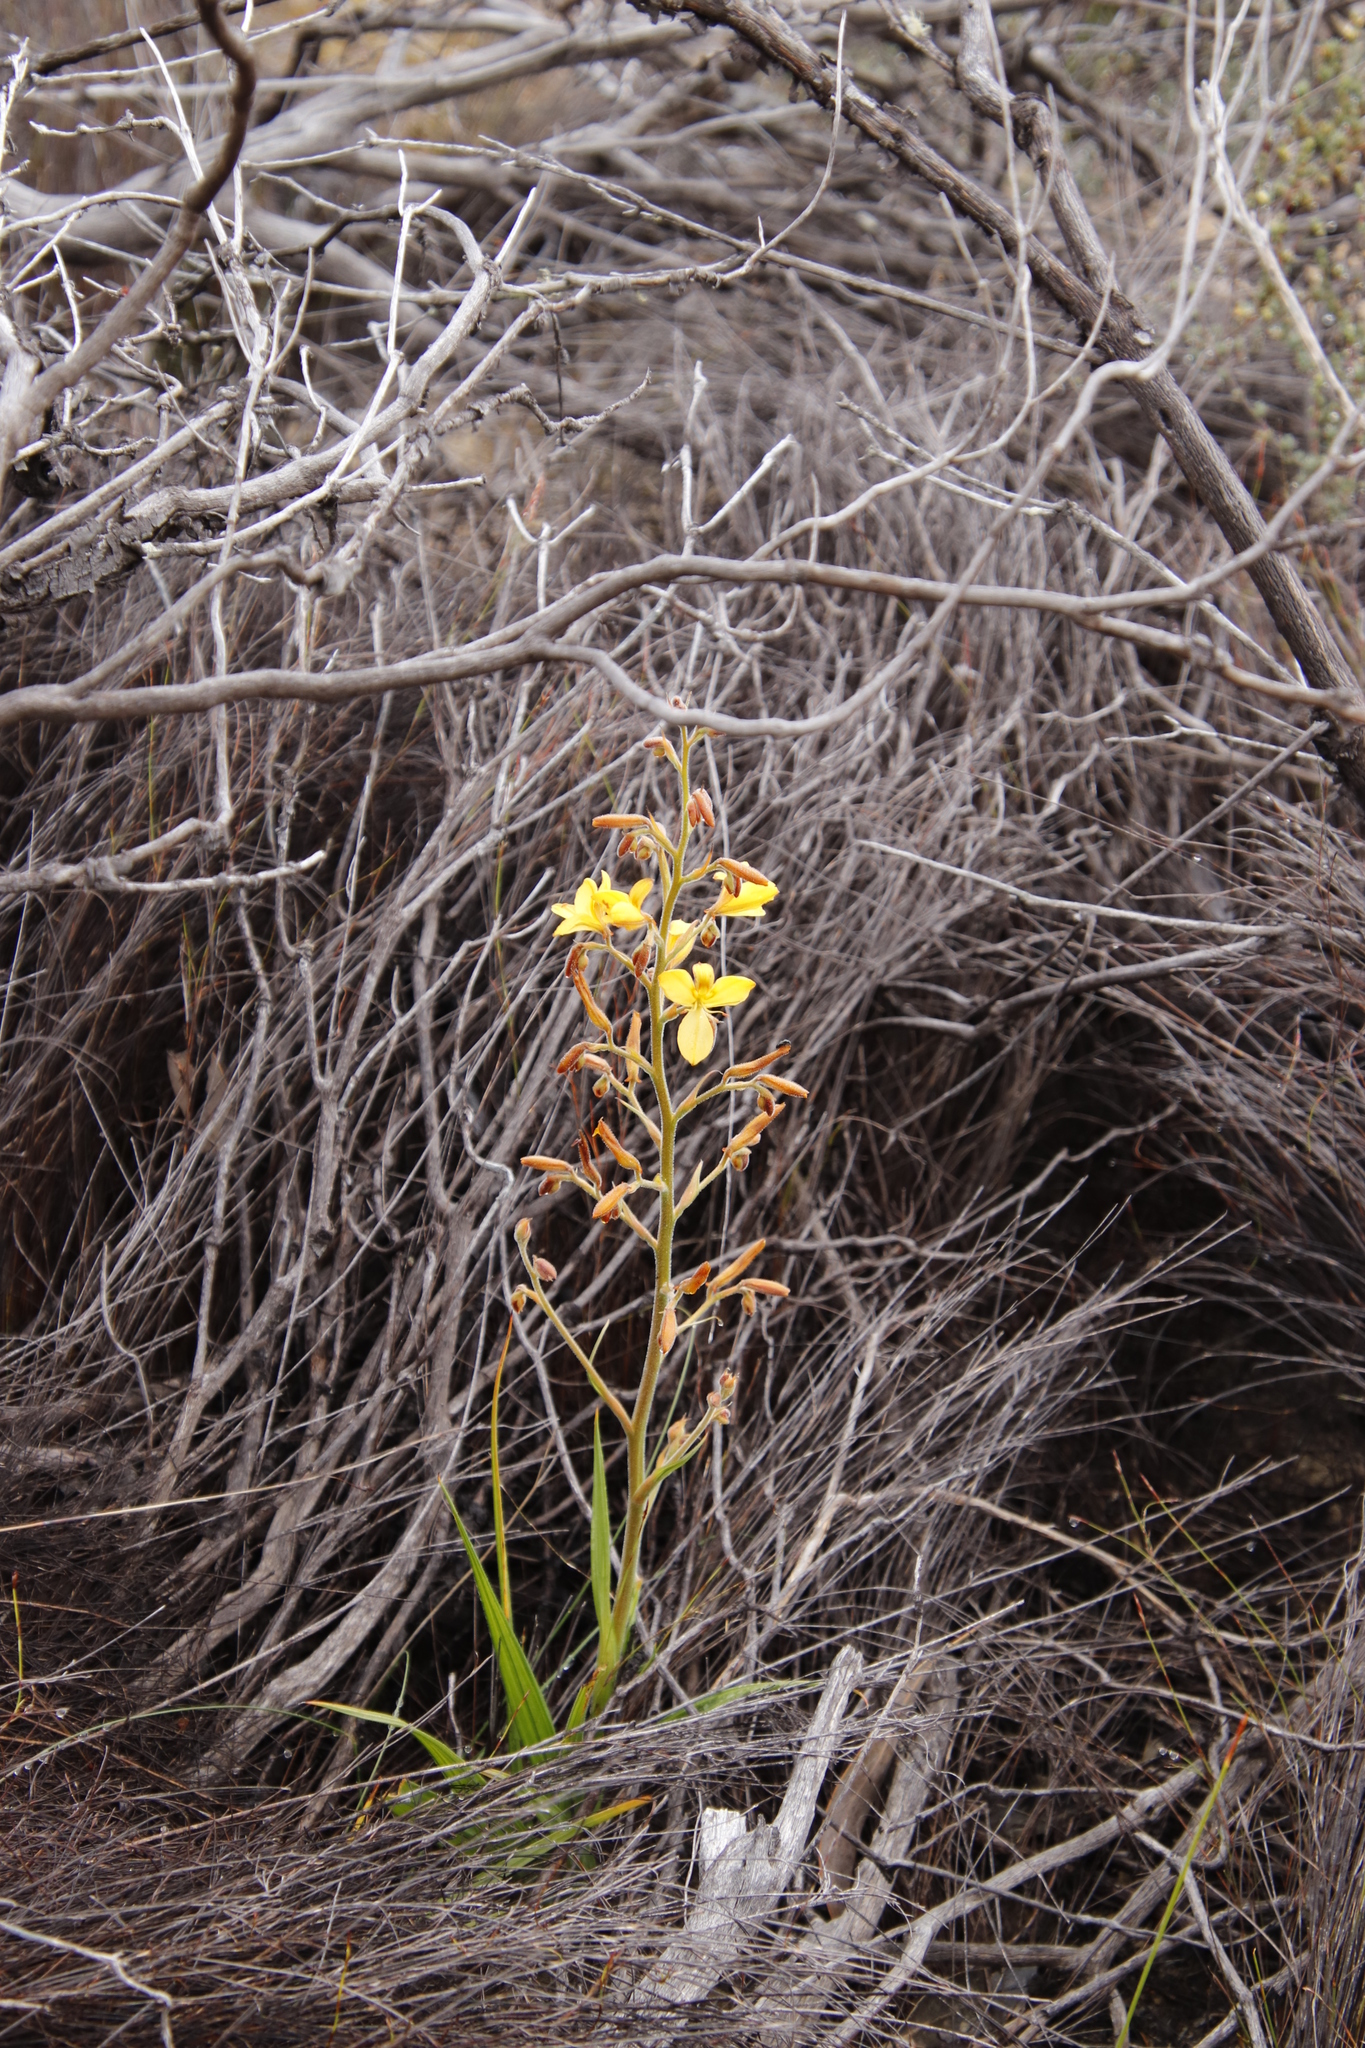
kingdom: Plantae
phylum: Tracheophyta
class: Liliopsida
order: Commelinales
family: Haemodoraceae
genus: Wachendorfia
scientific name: Wachendorfia paniculata
